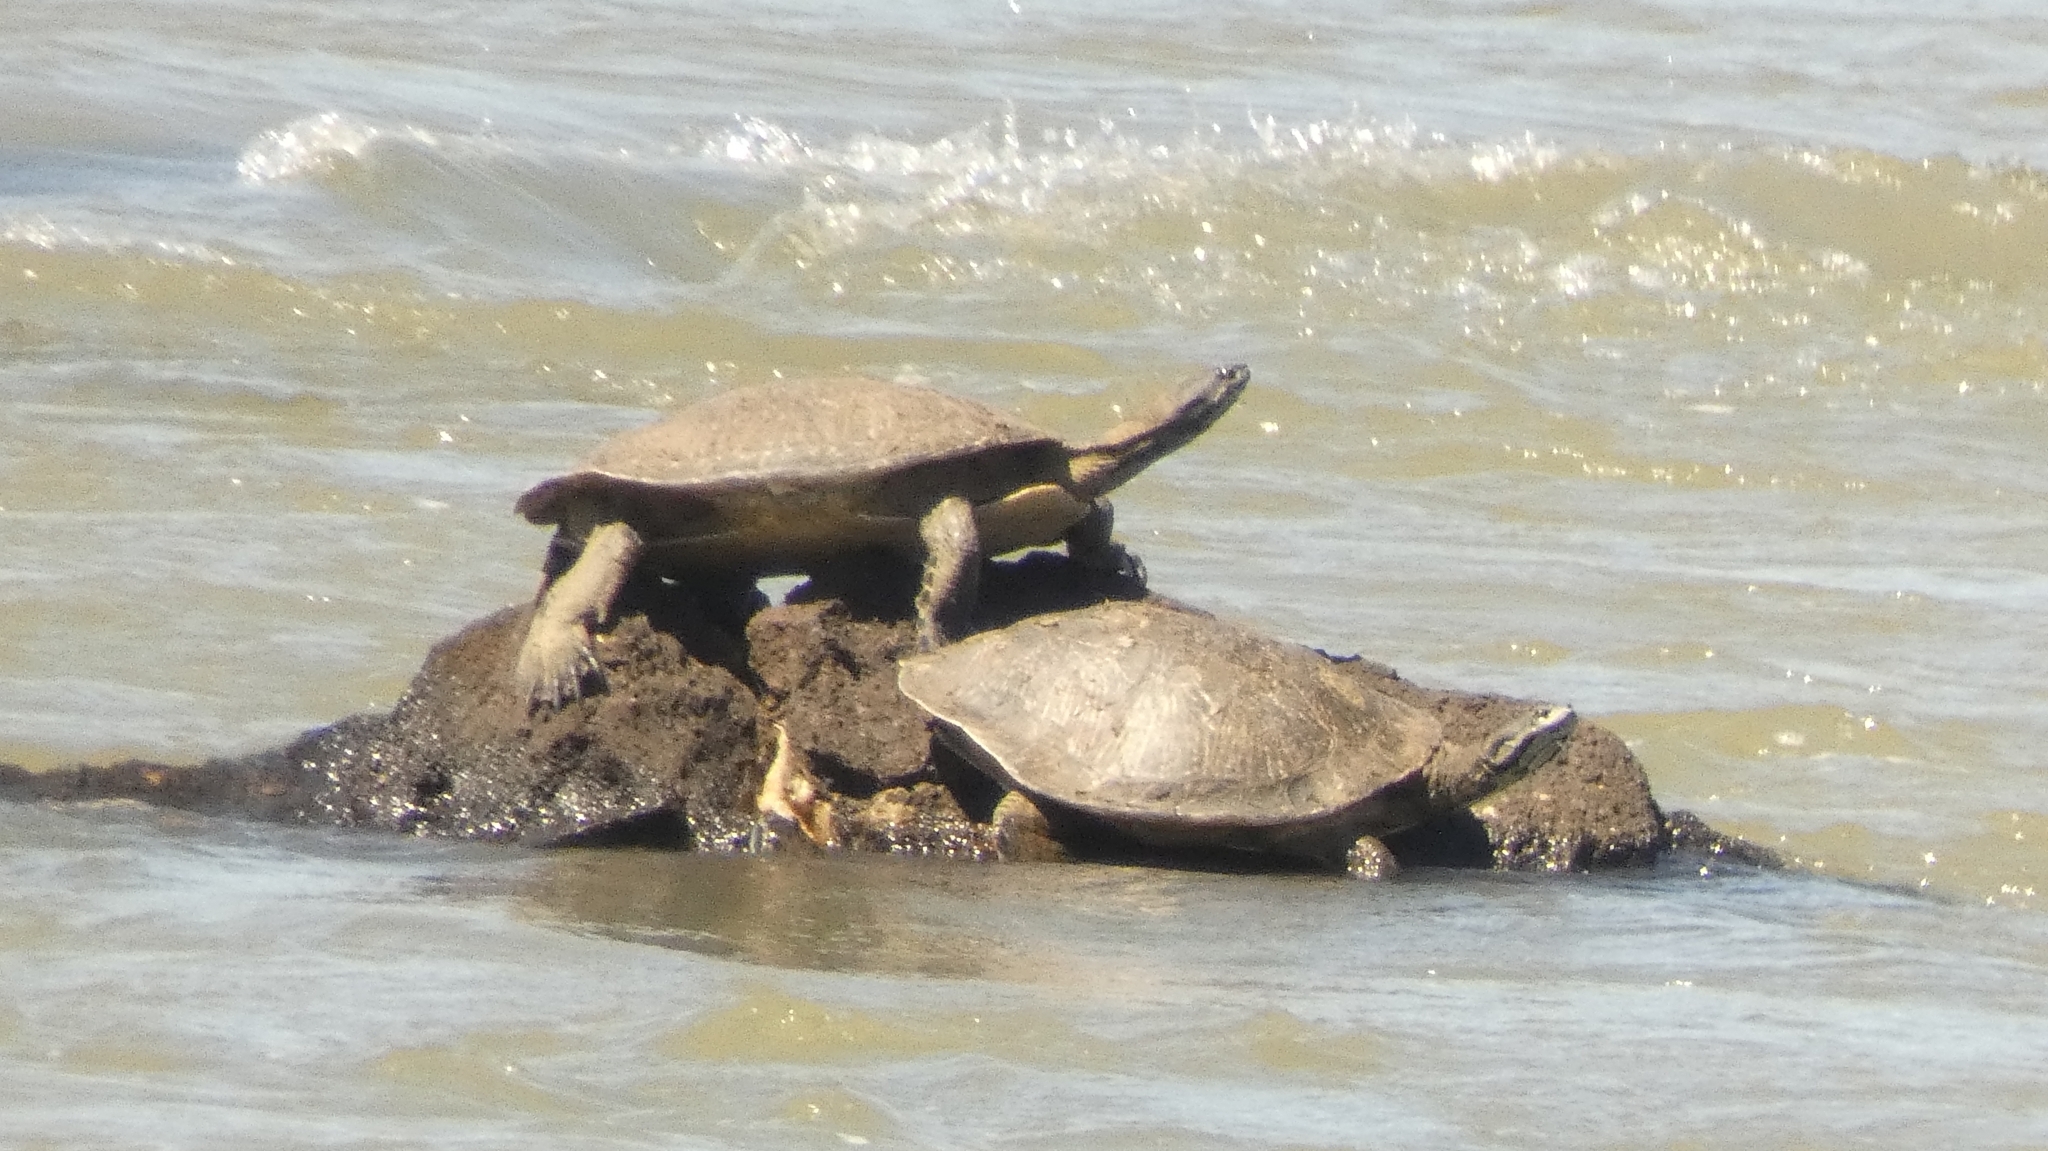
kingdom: Animalia
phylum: Chordata
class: Testudines
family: Chelidae
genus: Phrynops
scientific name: Phrynops williamsi
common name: Williams side-necked turtle
